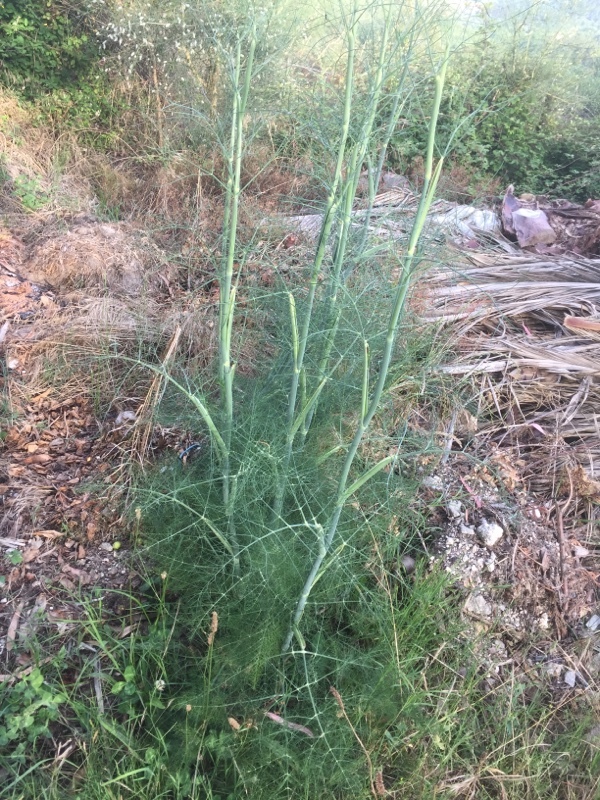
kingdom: Plantae
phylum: Tracheophyta
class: Magnoliopsida
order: Apiales
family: Apiaceae
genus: Foeniculum
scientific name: Foeniculum vulgare
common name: Fennel
